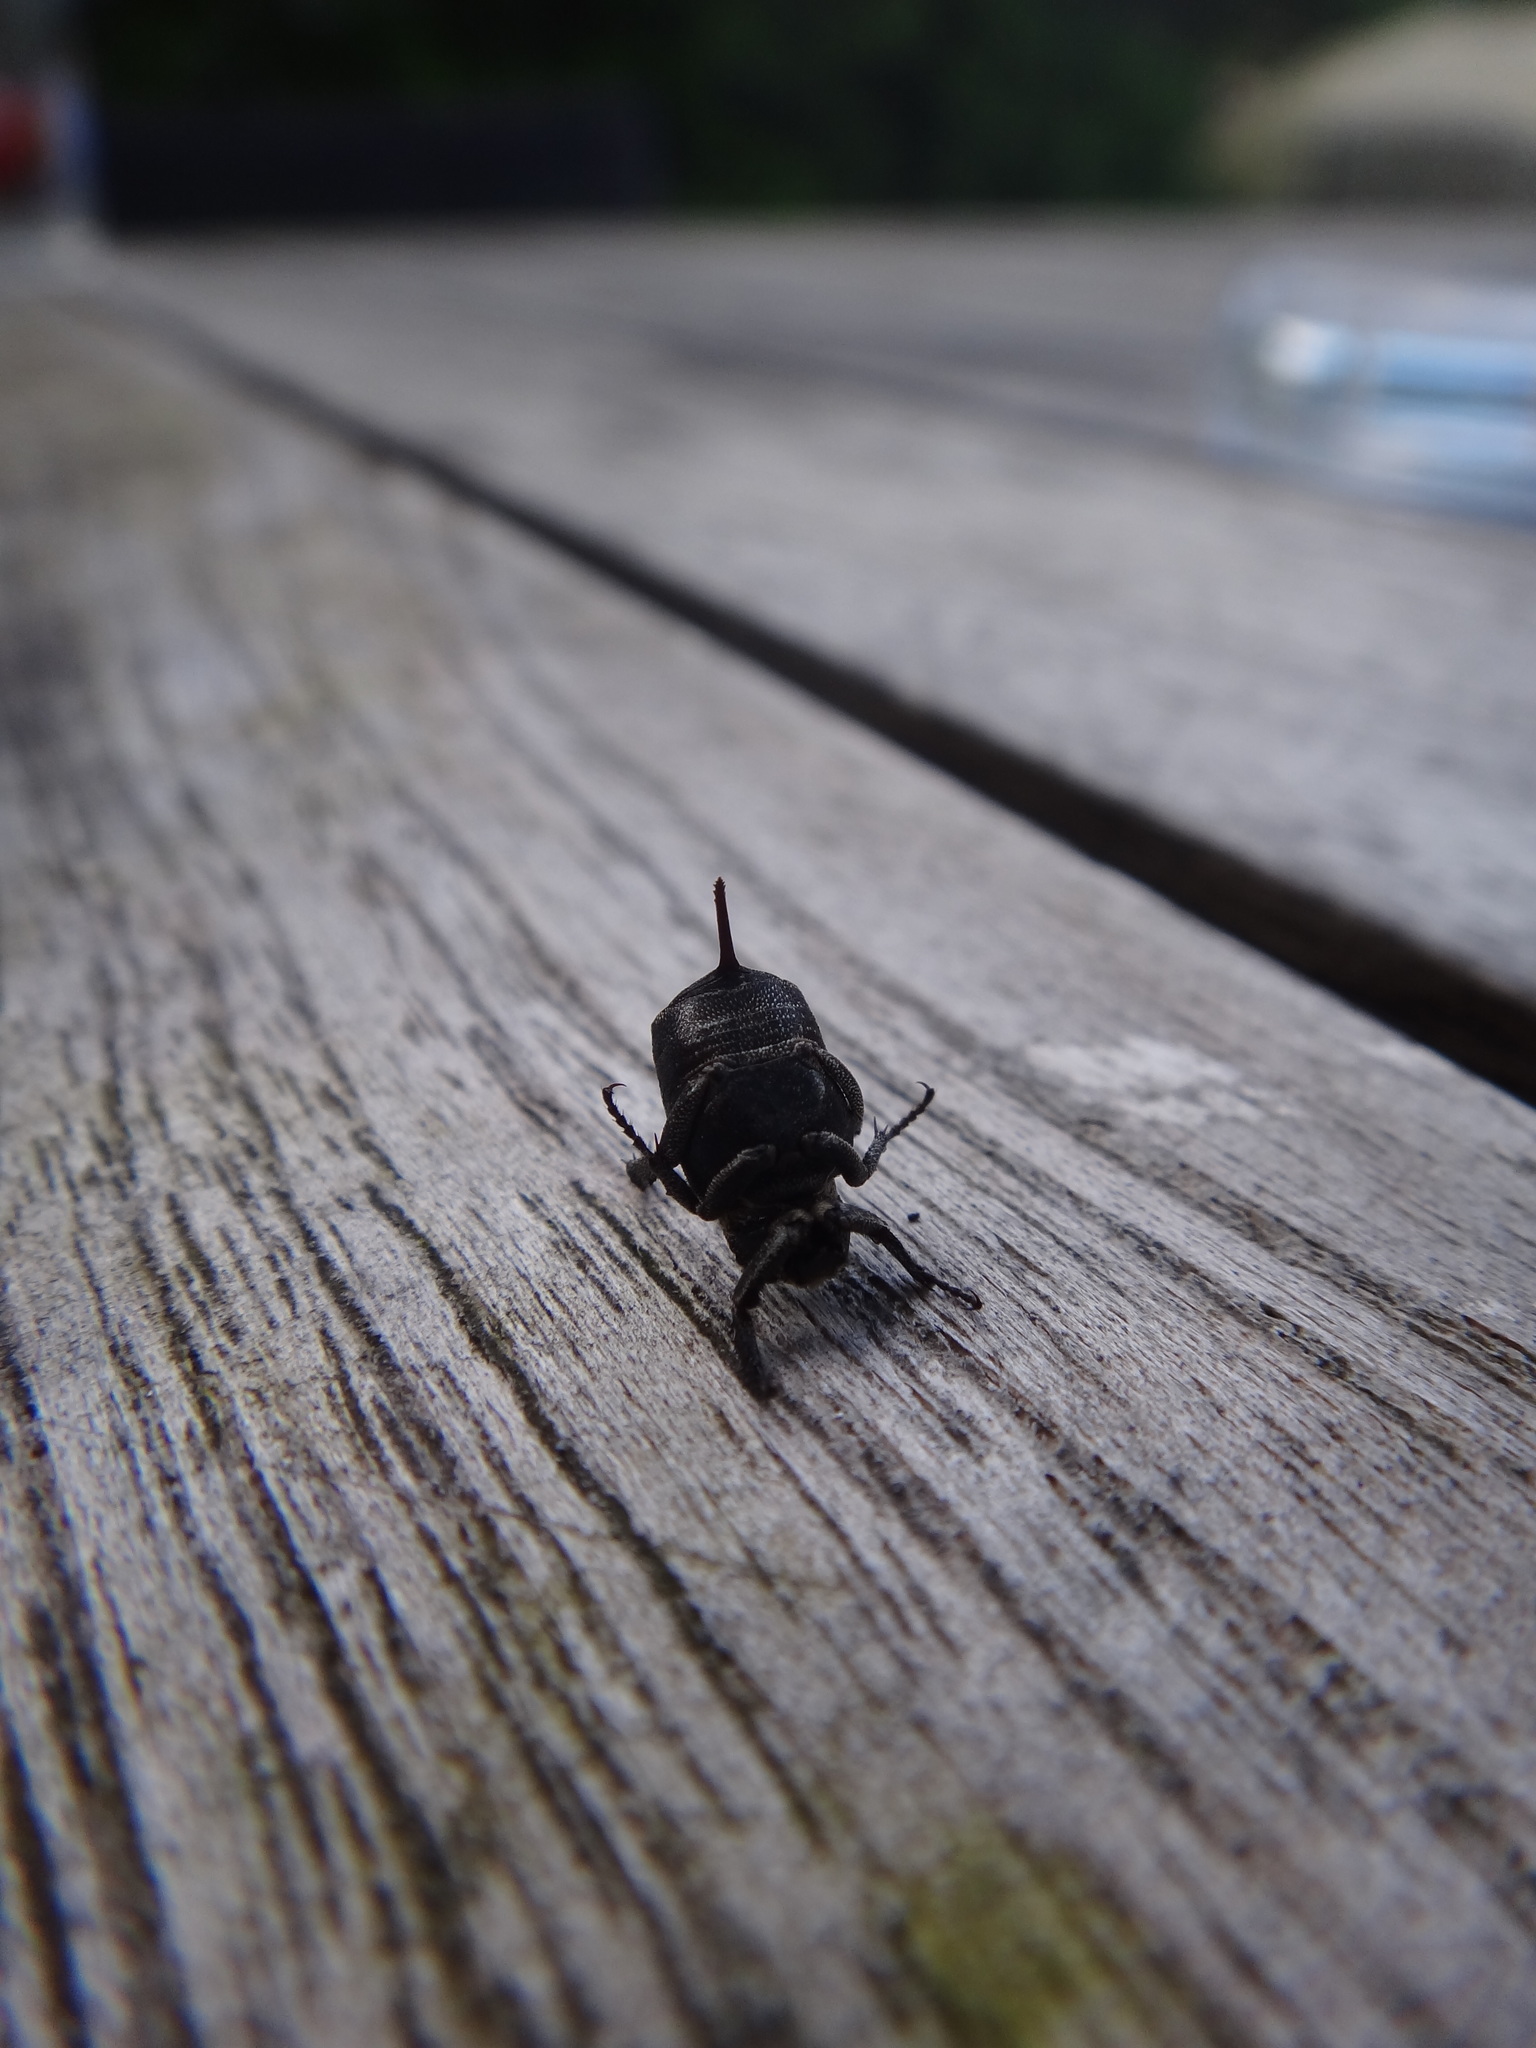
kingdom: Animalia
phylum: Arthropoda
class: Insecta
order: Coleoptera
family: Scarabaeidae
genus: Valgus
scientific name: Valgus hemipterus
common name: Bug flower chafer
